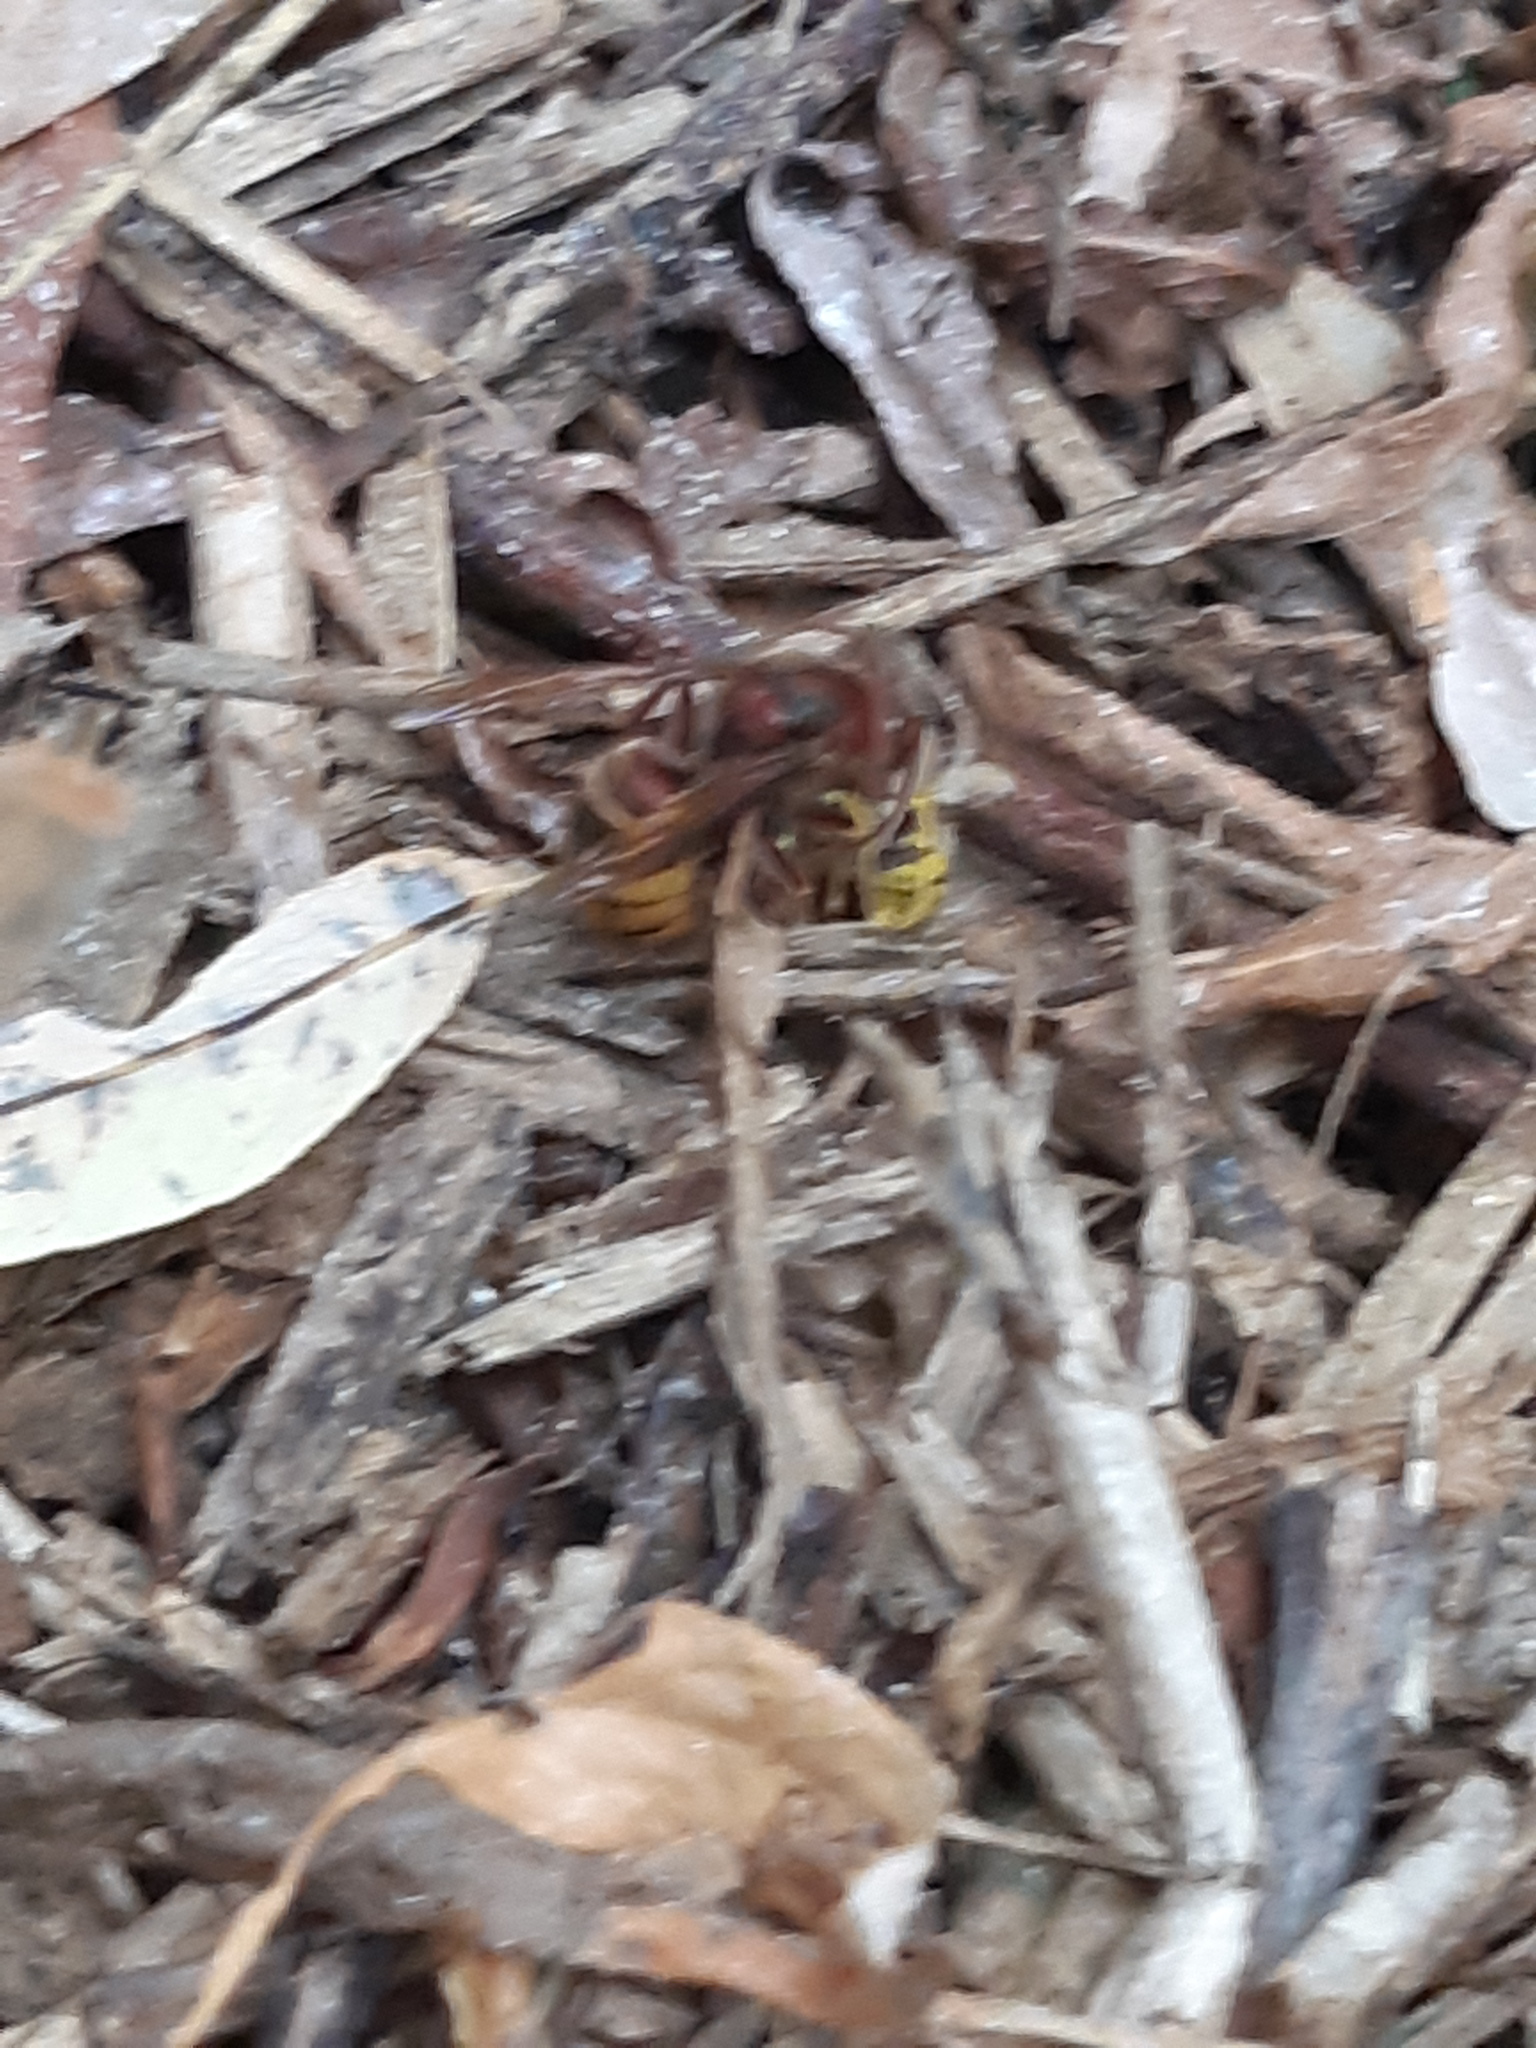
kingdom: Animalia
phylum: Arthropoda
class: Insecta
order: Hymenoptera
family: Vespidae
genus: Vespa
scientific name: Vespa crabro
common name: Hornet
